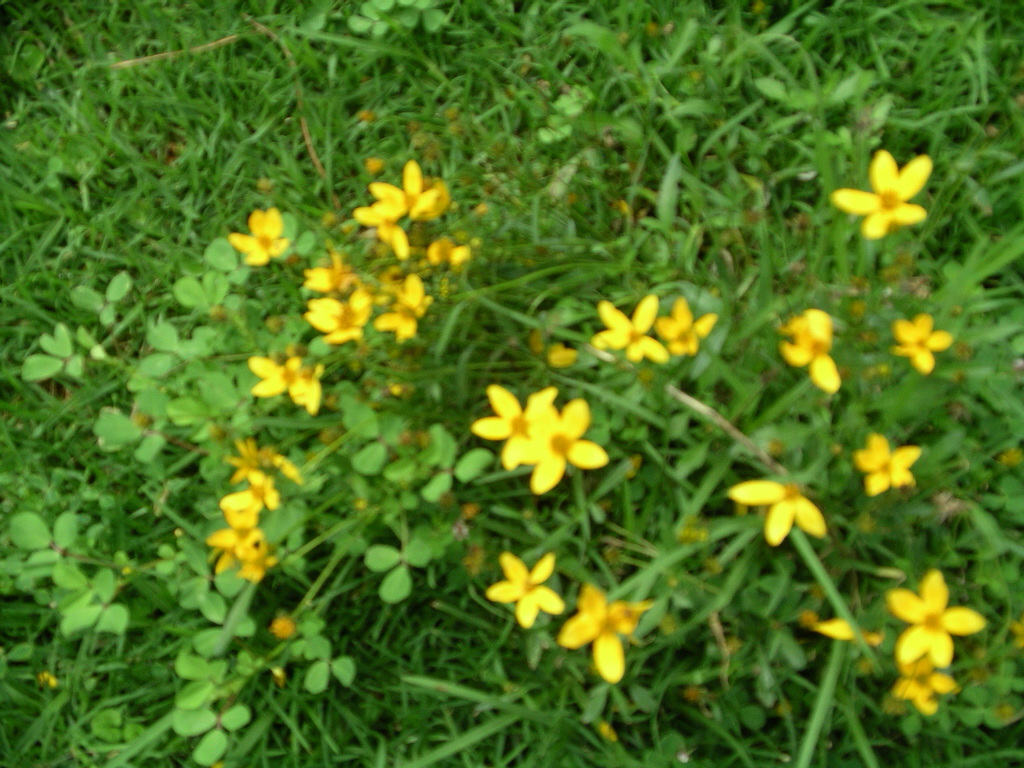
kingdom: Plantae
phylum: Tracheophyta
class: Magnoliopsida
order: Asterales
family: Asteraceae
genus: Bidens
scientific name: Bidens aurea
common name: Arizona beggar-ticks
